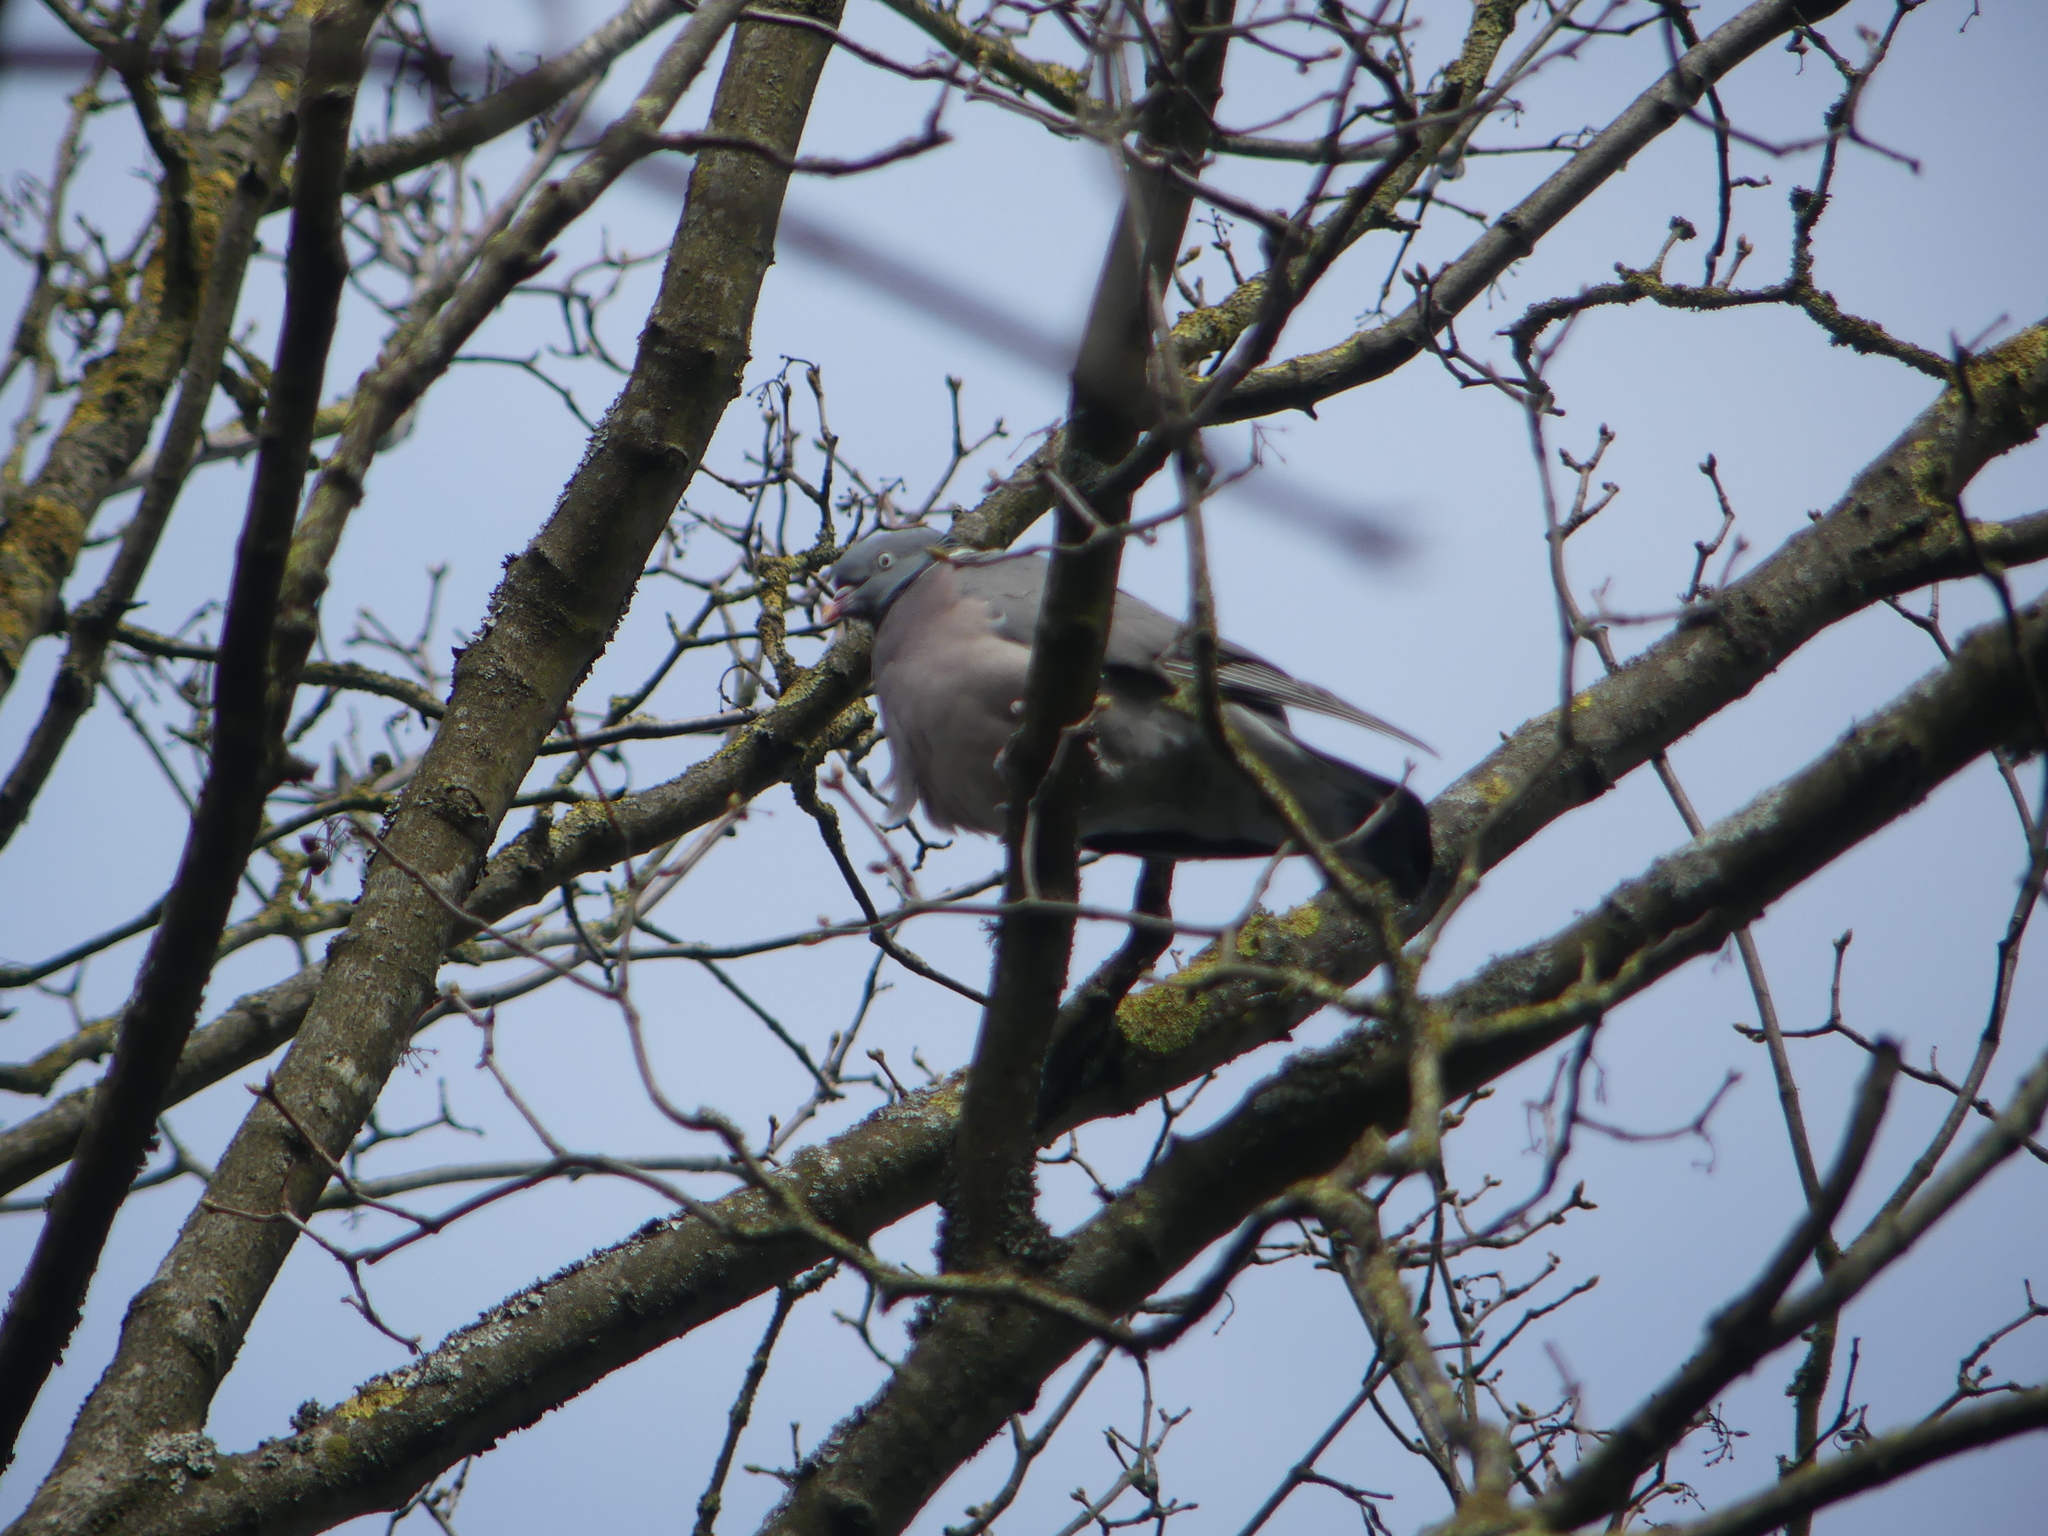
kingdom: Animalia
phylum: Chordata
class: Aves
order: Columbiformes
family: Columbidae
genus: Columba
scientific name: Columba palumbus
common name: Common wood pigeon
